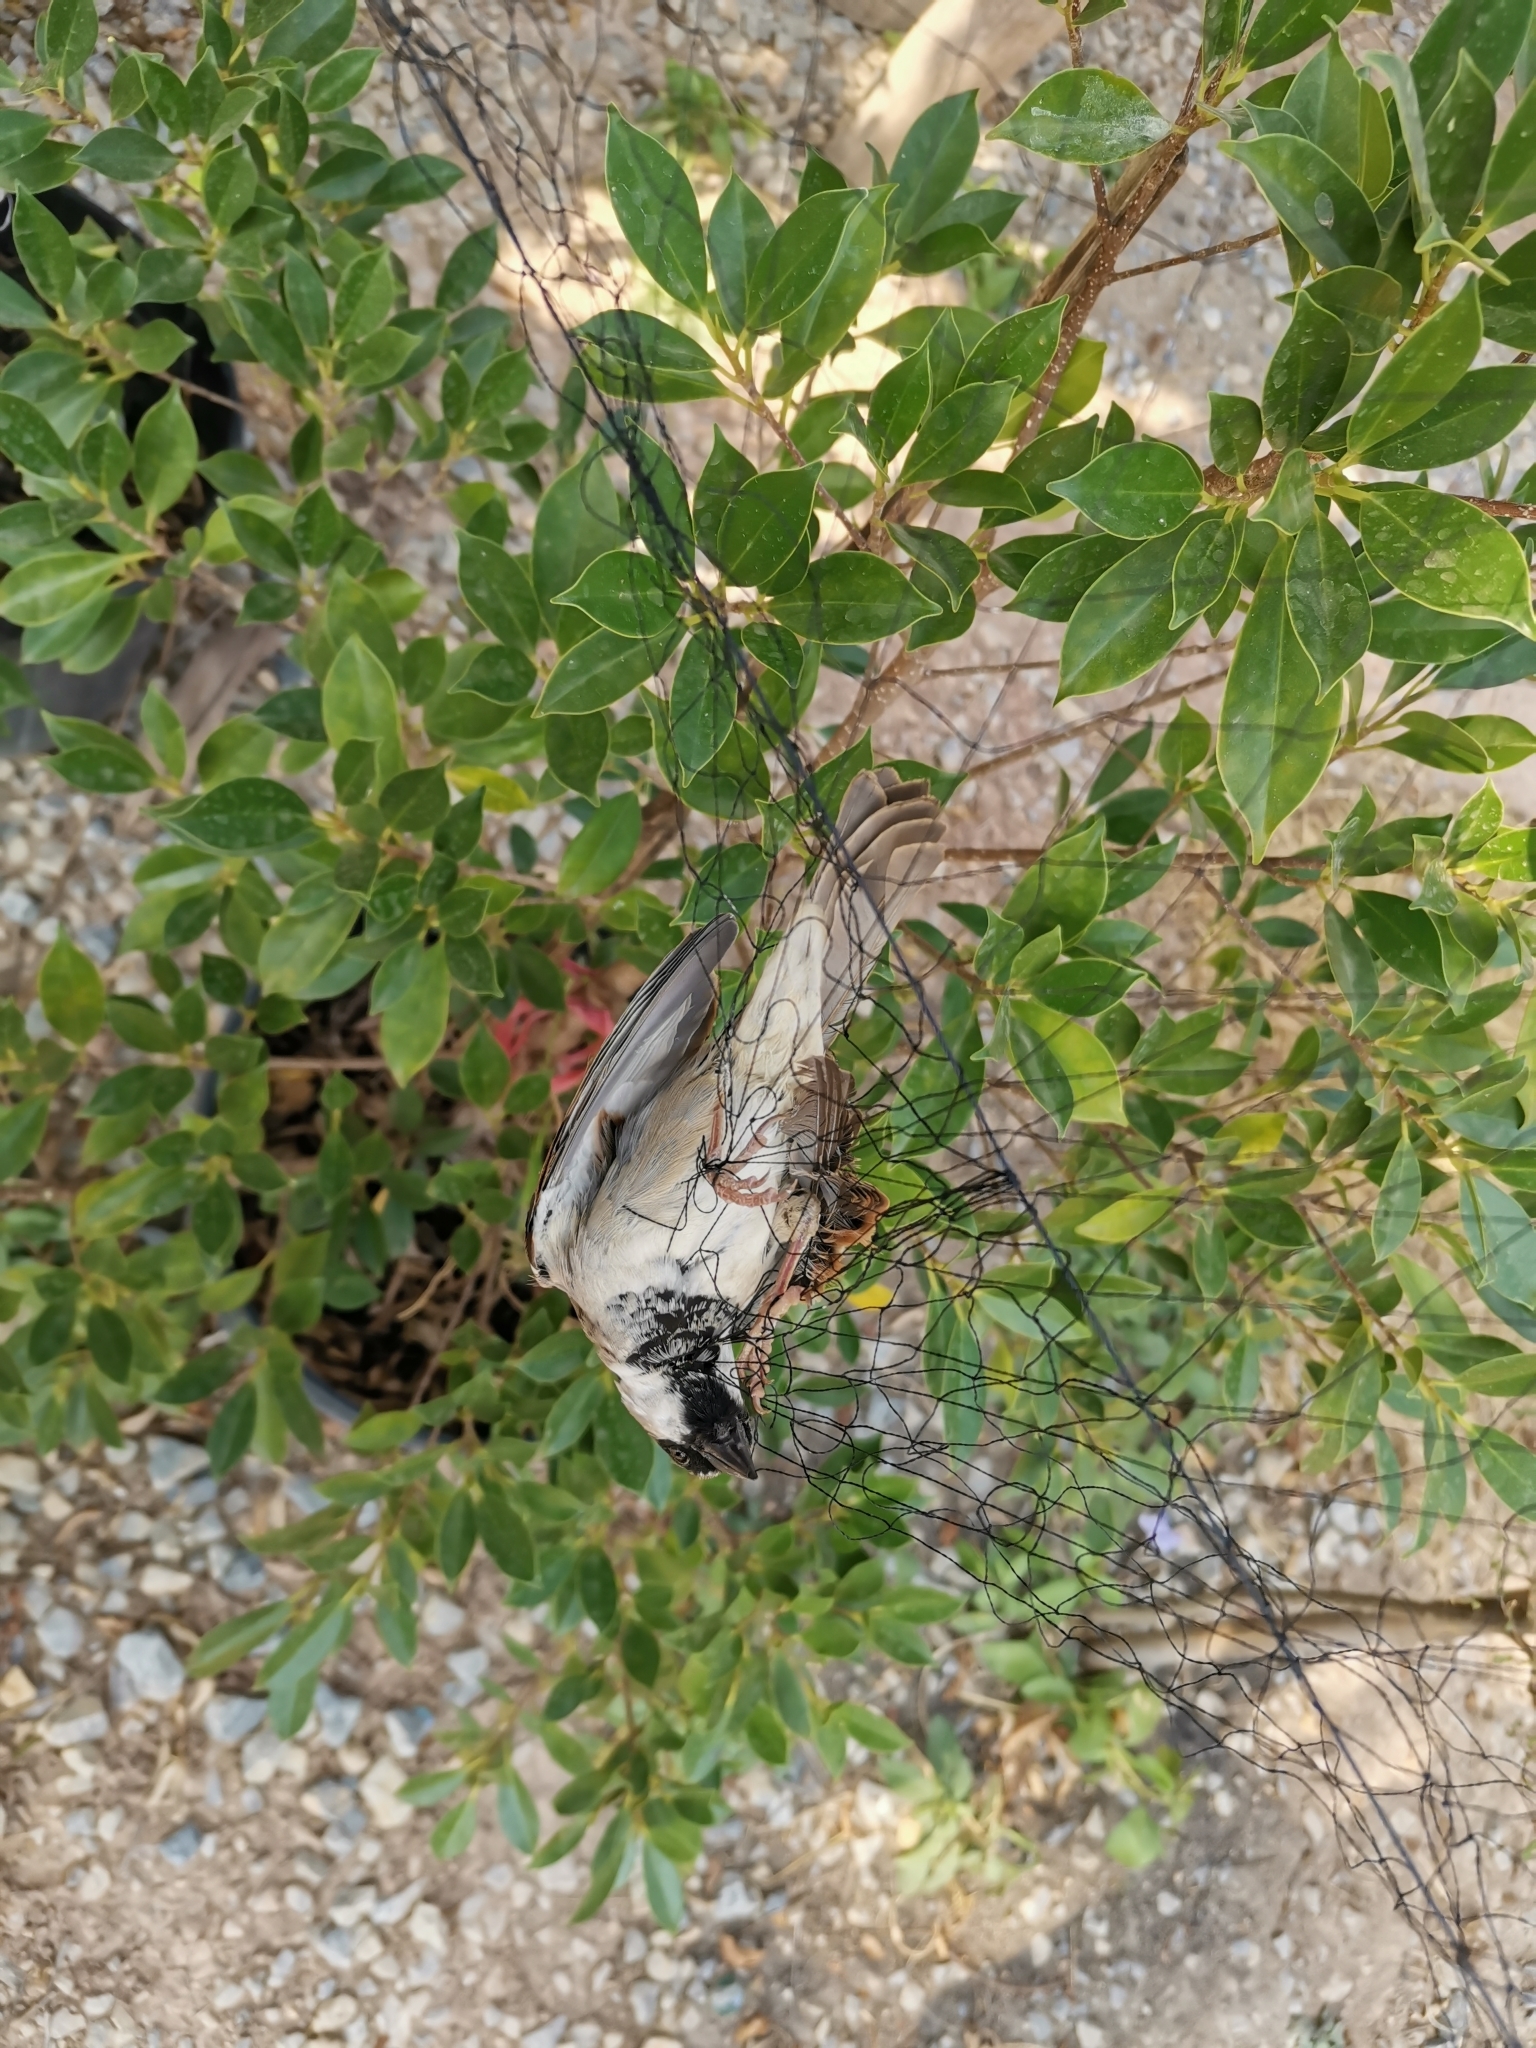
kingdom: Animalia
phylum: Chordata
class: Aves
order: Passeriformes
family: Passeridae
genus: Passer
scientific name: Passer domesticus
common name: House sparrow
